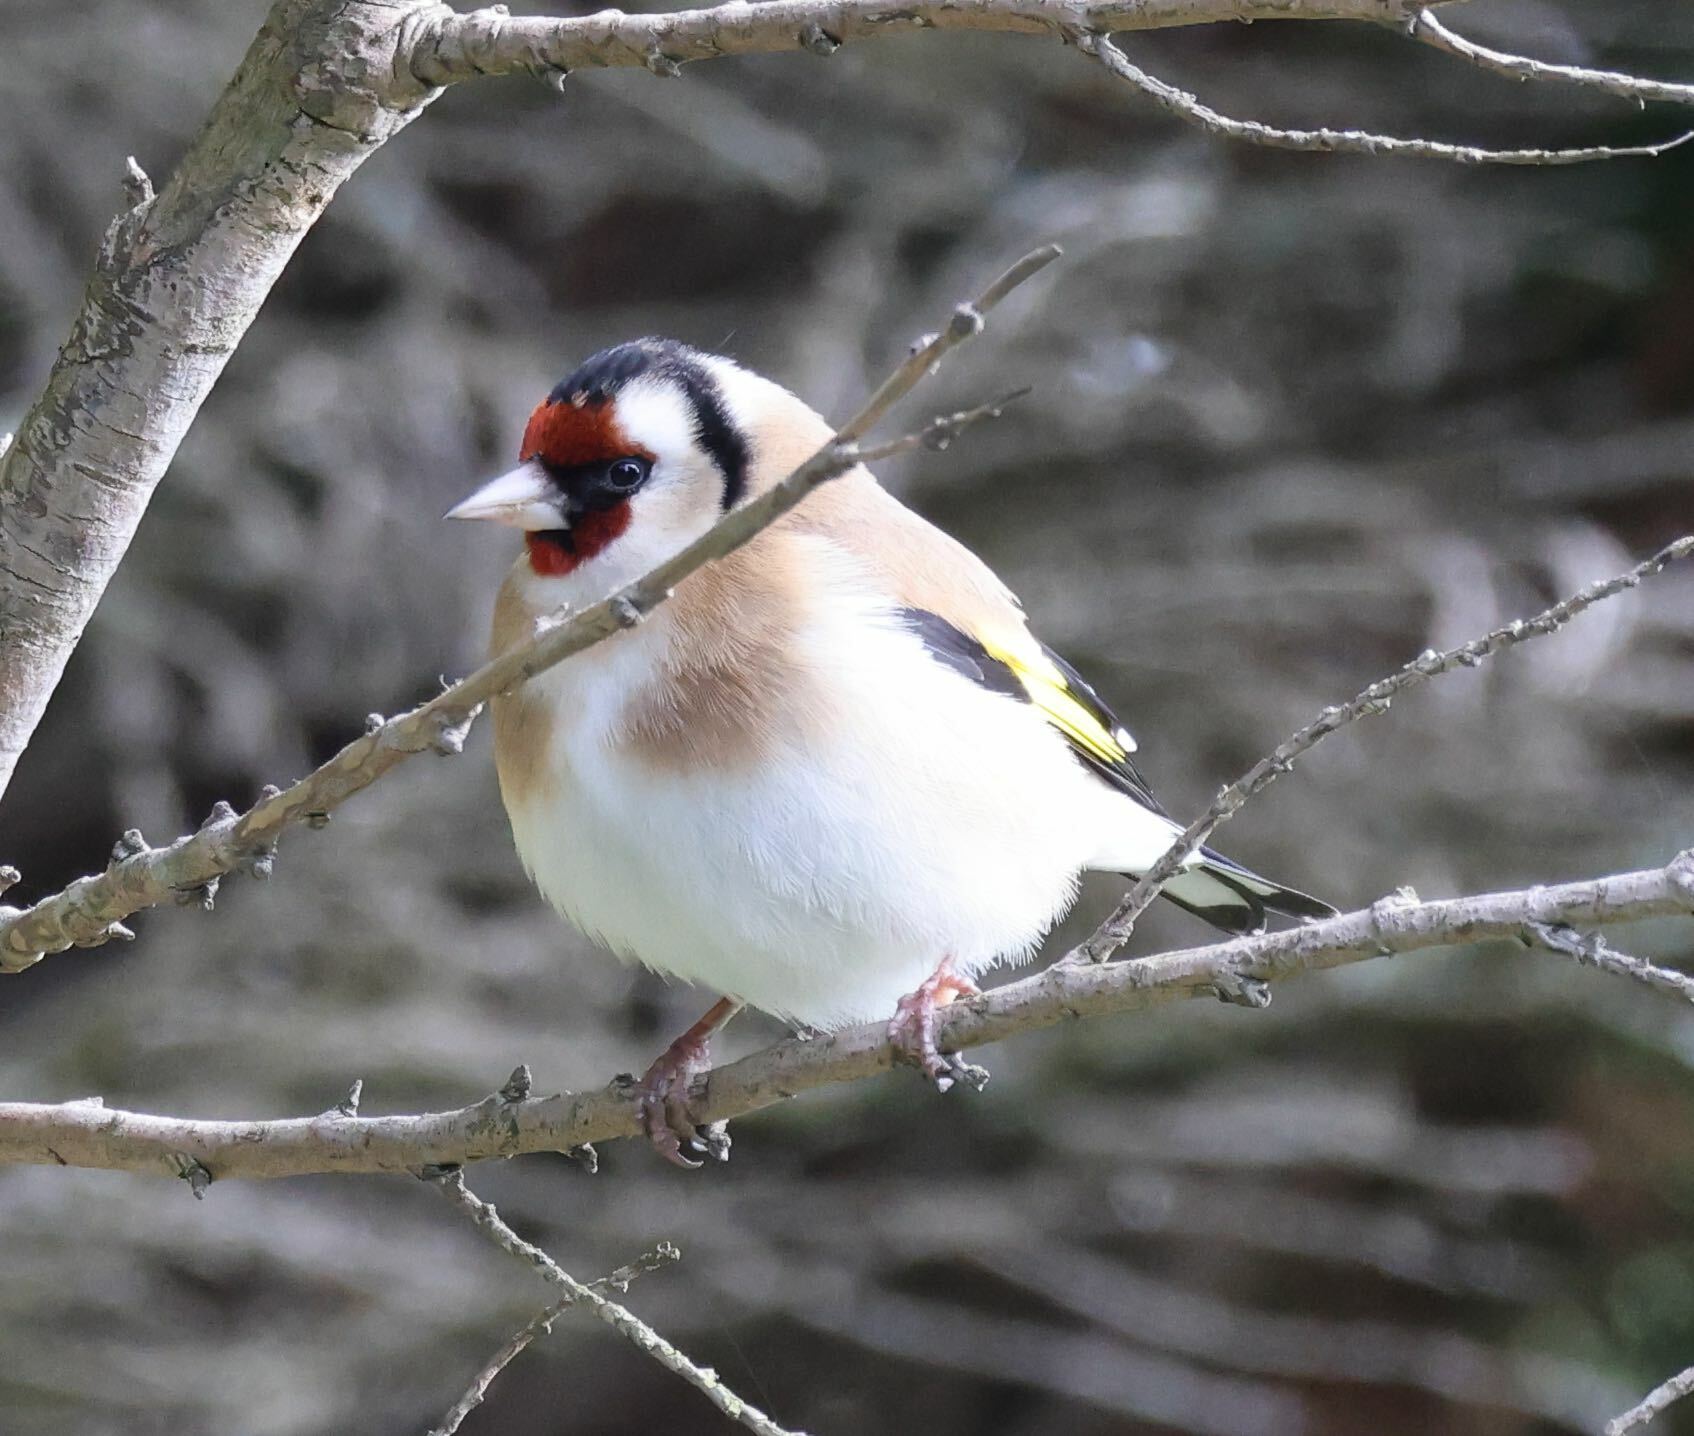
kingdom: Animalia
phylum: Chordata
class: Aves
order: Passeriformes
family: Fringillidae
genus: Carduelis
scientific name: Carduelis carduelis
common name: European goldfinch
